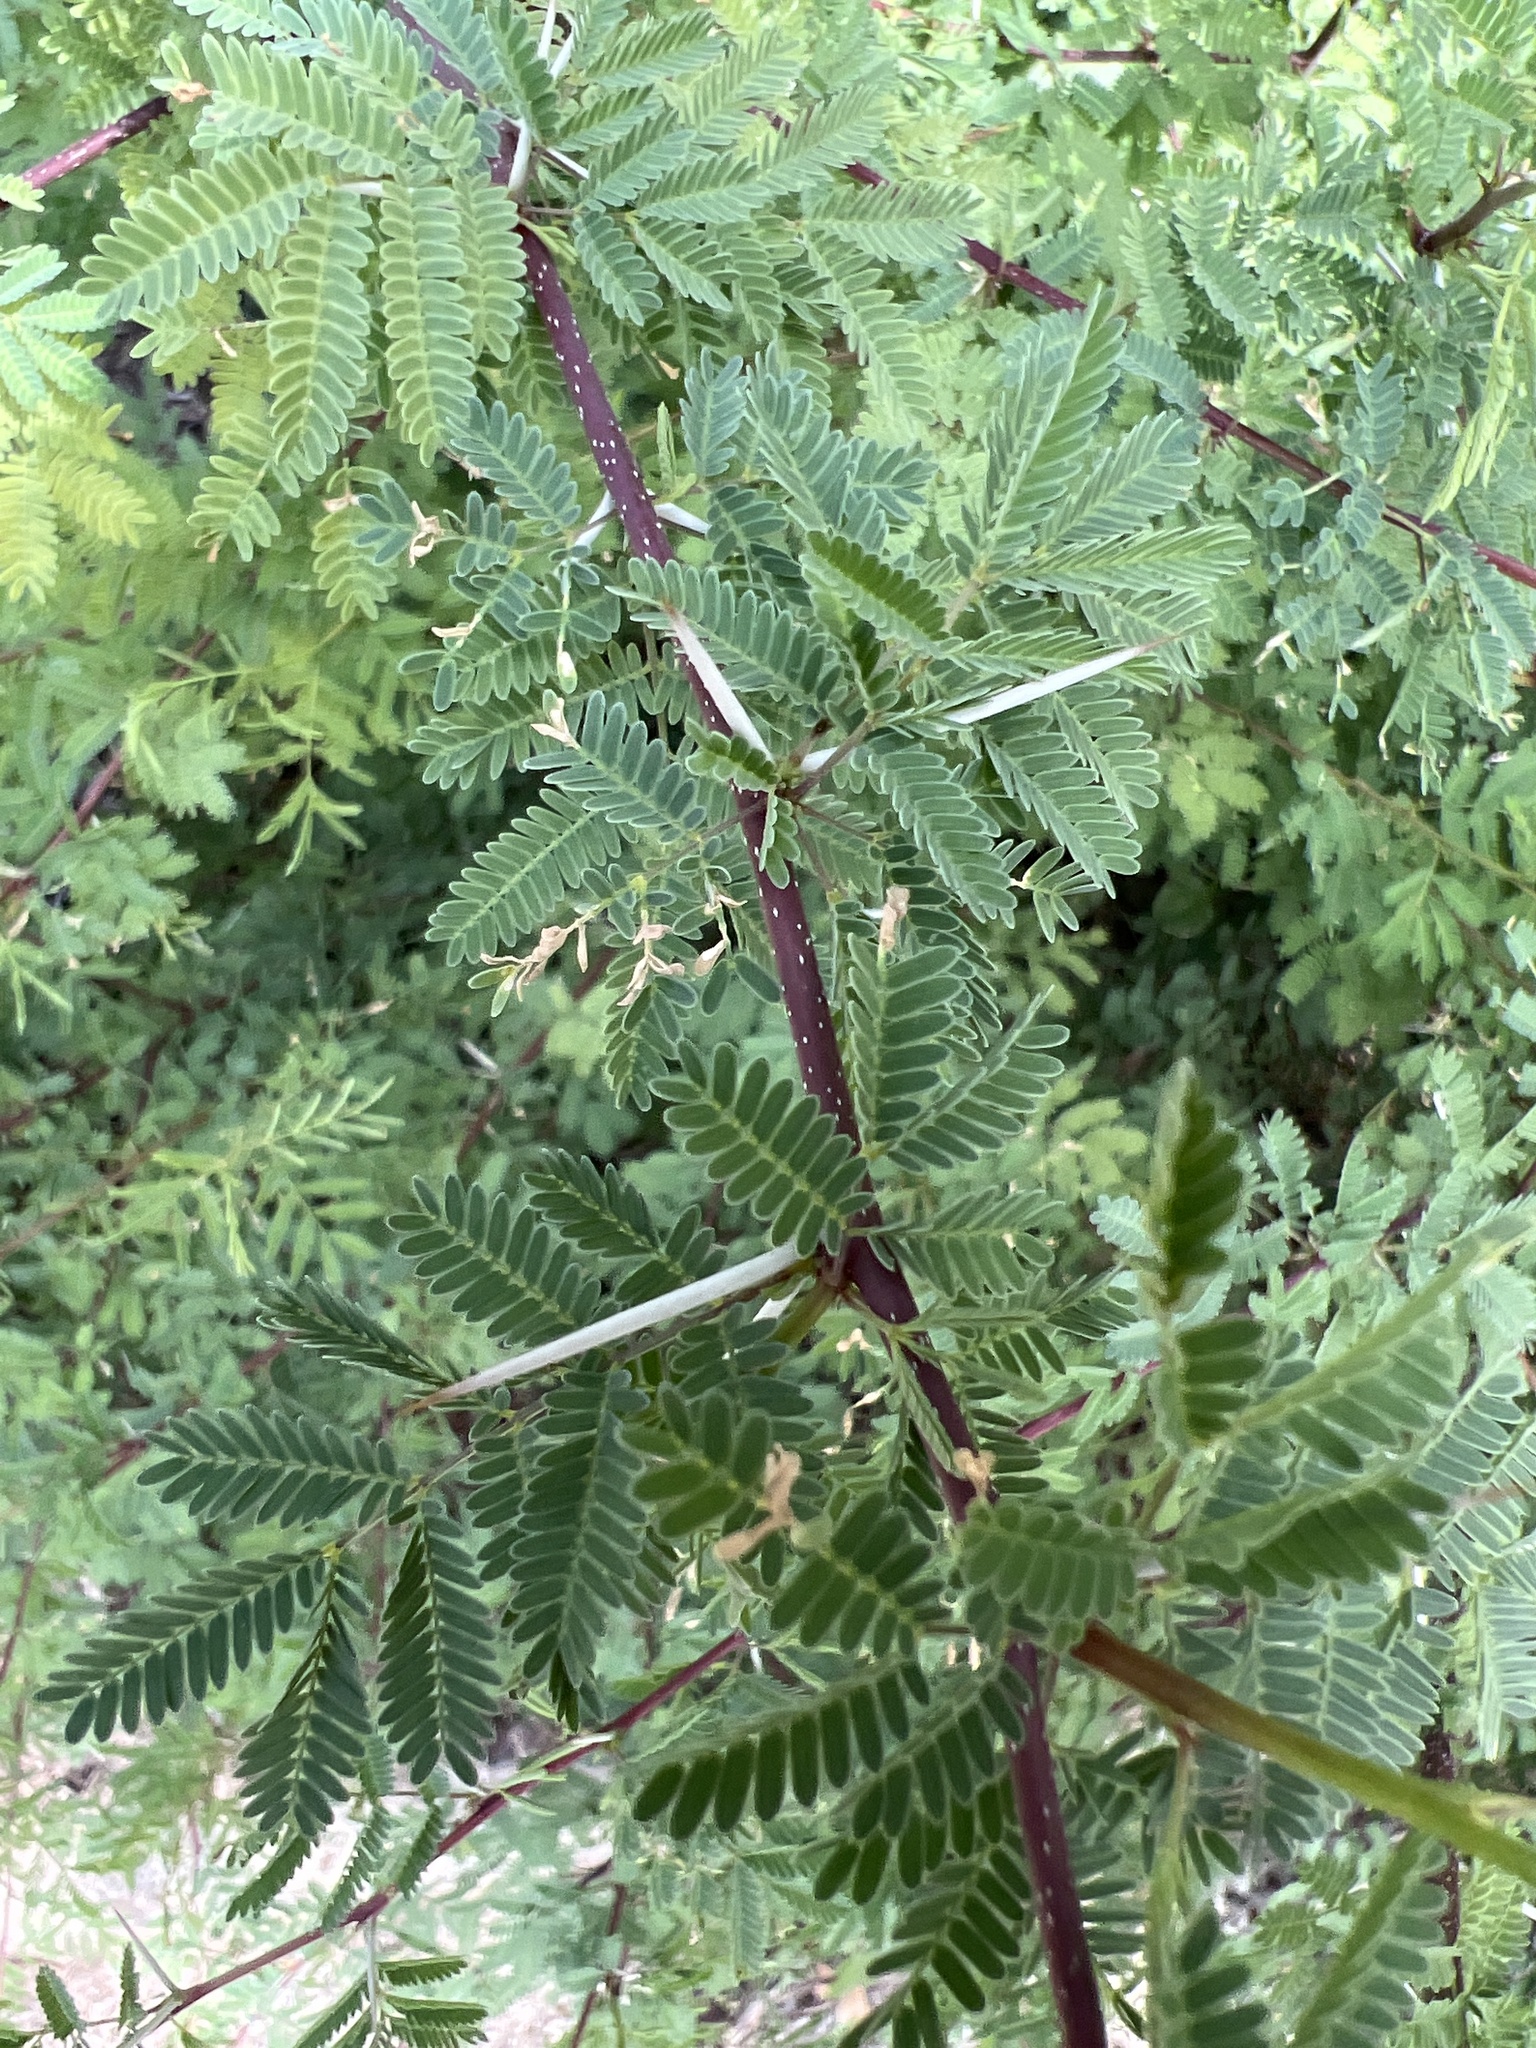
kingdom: Plantae
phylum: Tracheophyta
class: Magnoliopsida
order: Fabales
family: Fabaceae
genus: Vachellia
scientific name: Vachellia farnesiana
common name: Sweet acacia
